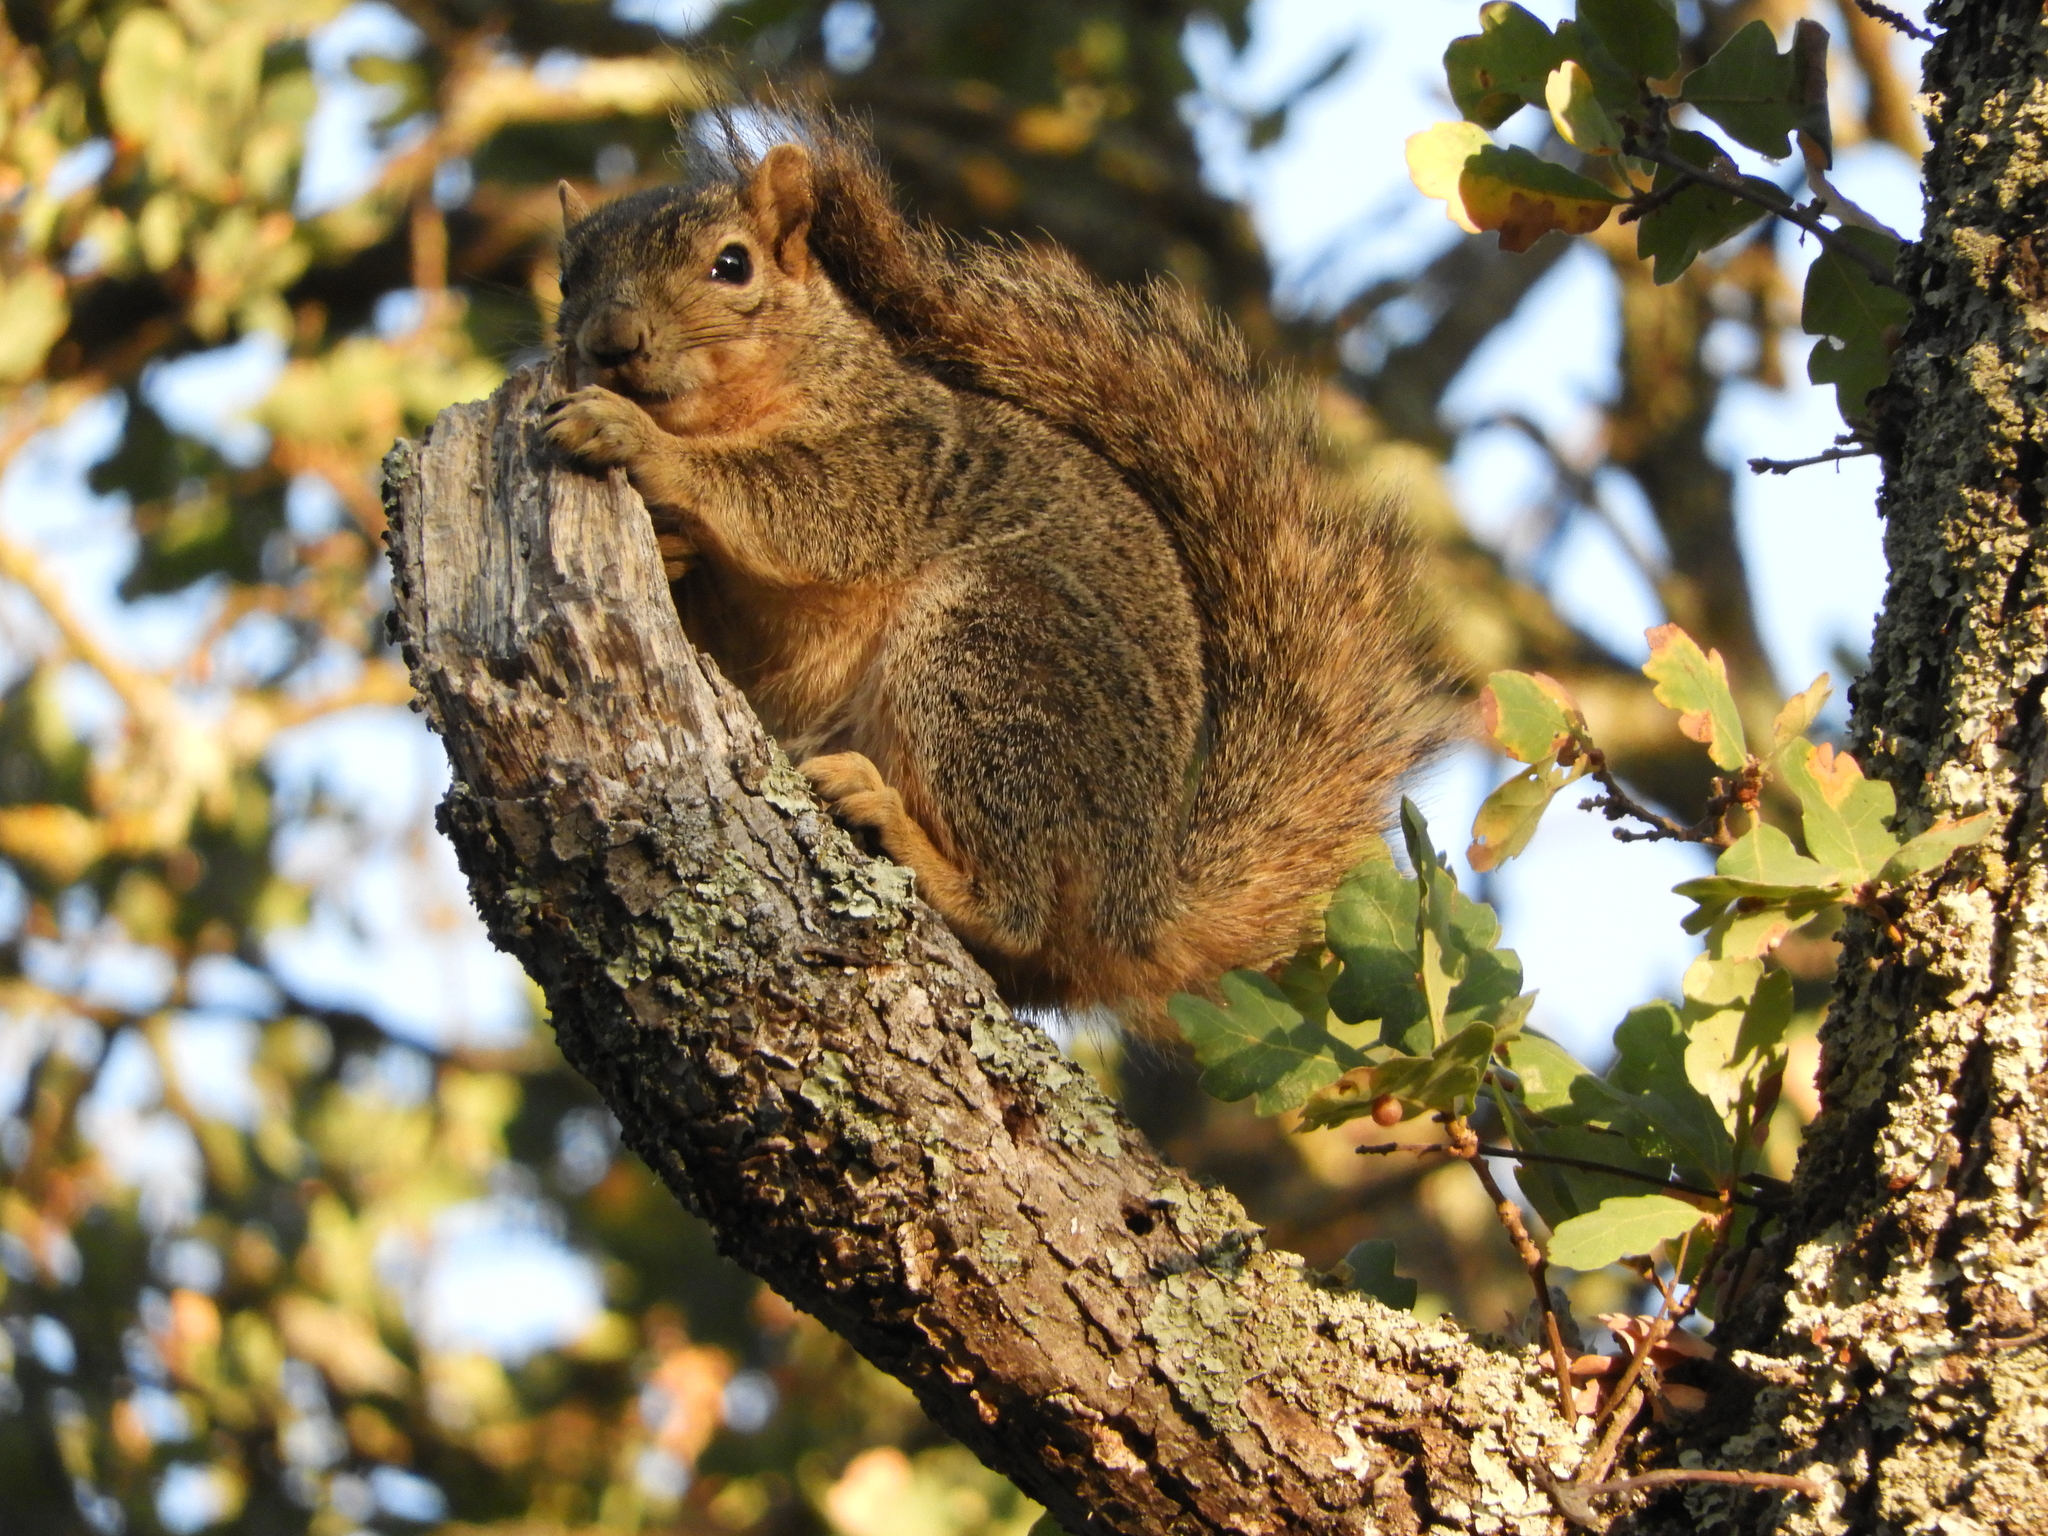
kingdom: Animalia
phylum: Chordata
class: Mammalia
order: Rodentia
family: Sciuridae
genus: Sciurus
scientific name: Sciurus niger
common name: Fox squirrel
